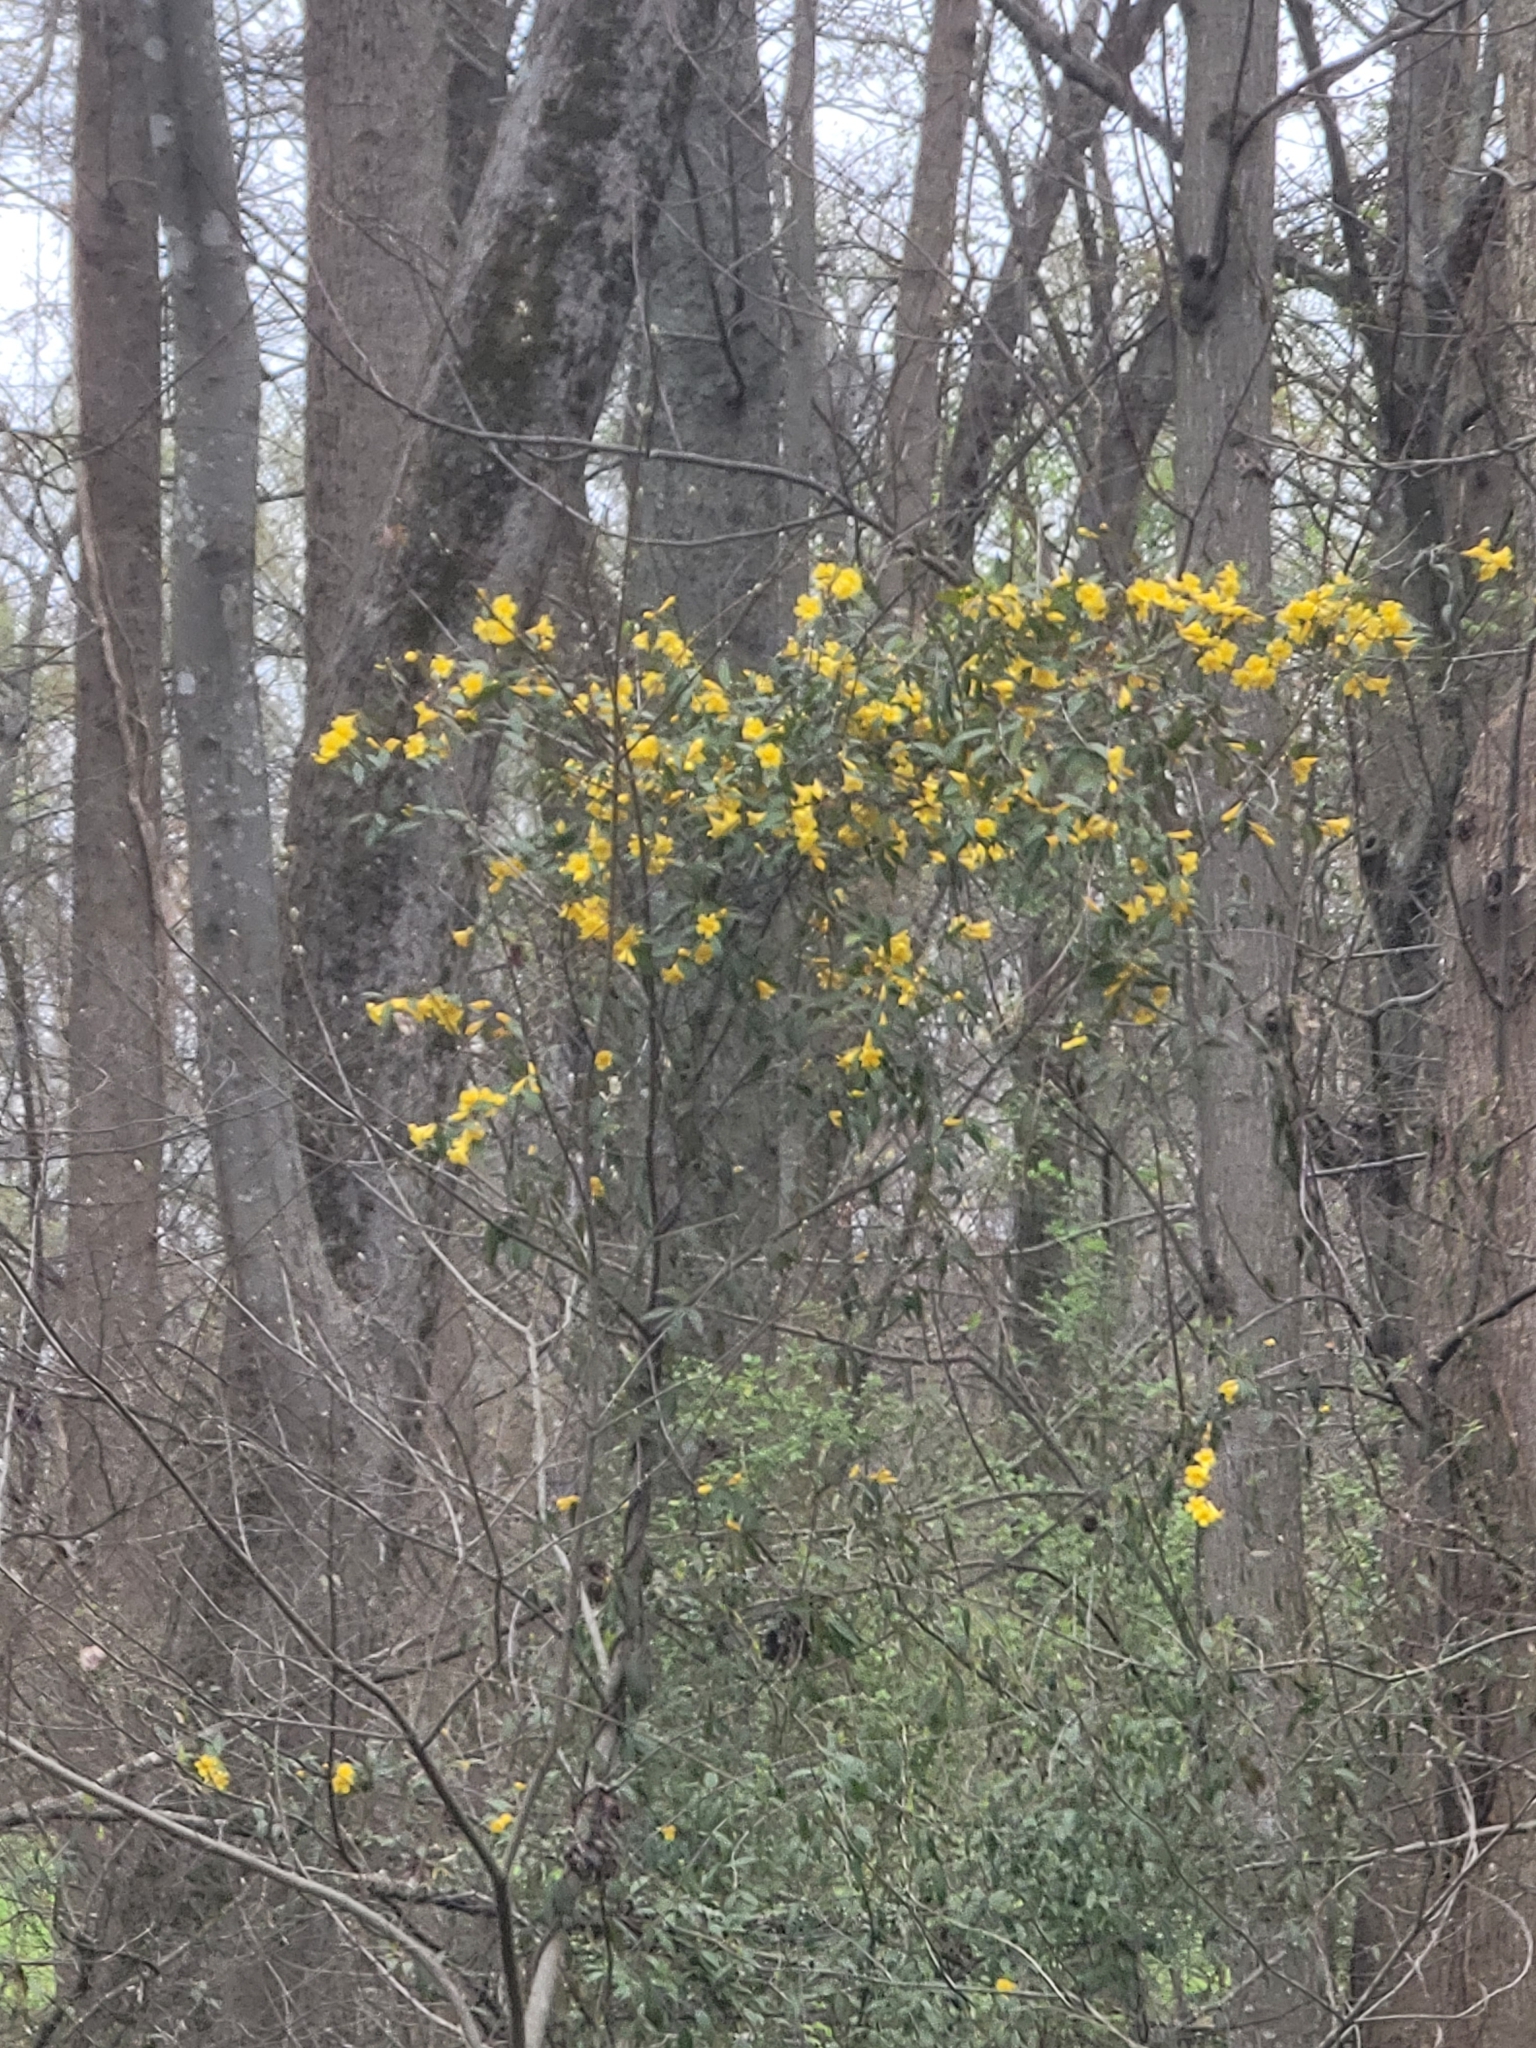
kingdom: Plantae
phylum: Tracheophyta
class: Magnoliopsida
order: Gentianales
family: Gelsemiaceae
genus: Gelsemium
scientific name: Gelsemium sempervirens
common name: Carolina-jasmine
